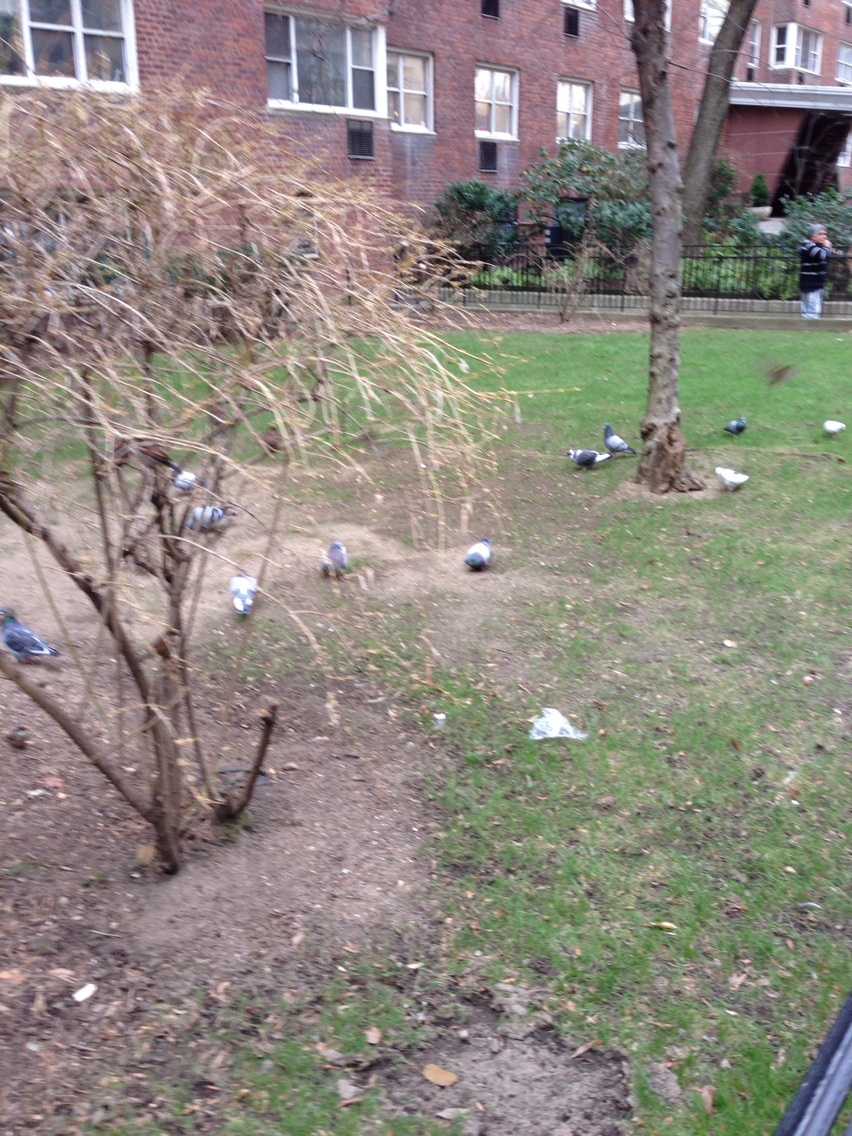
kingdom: Animalia
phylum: Chordata
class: Aves
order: Columbiformes
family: Columbidae
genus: Columba
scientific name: Columba livia
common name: Rock pigeon
